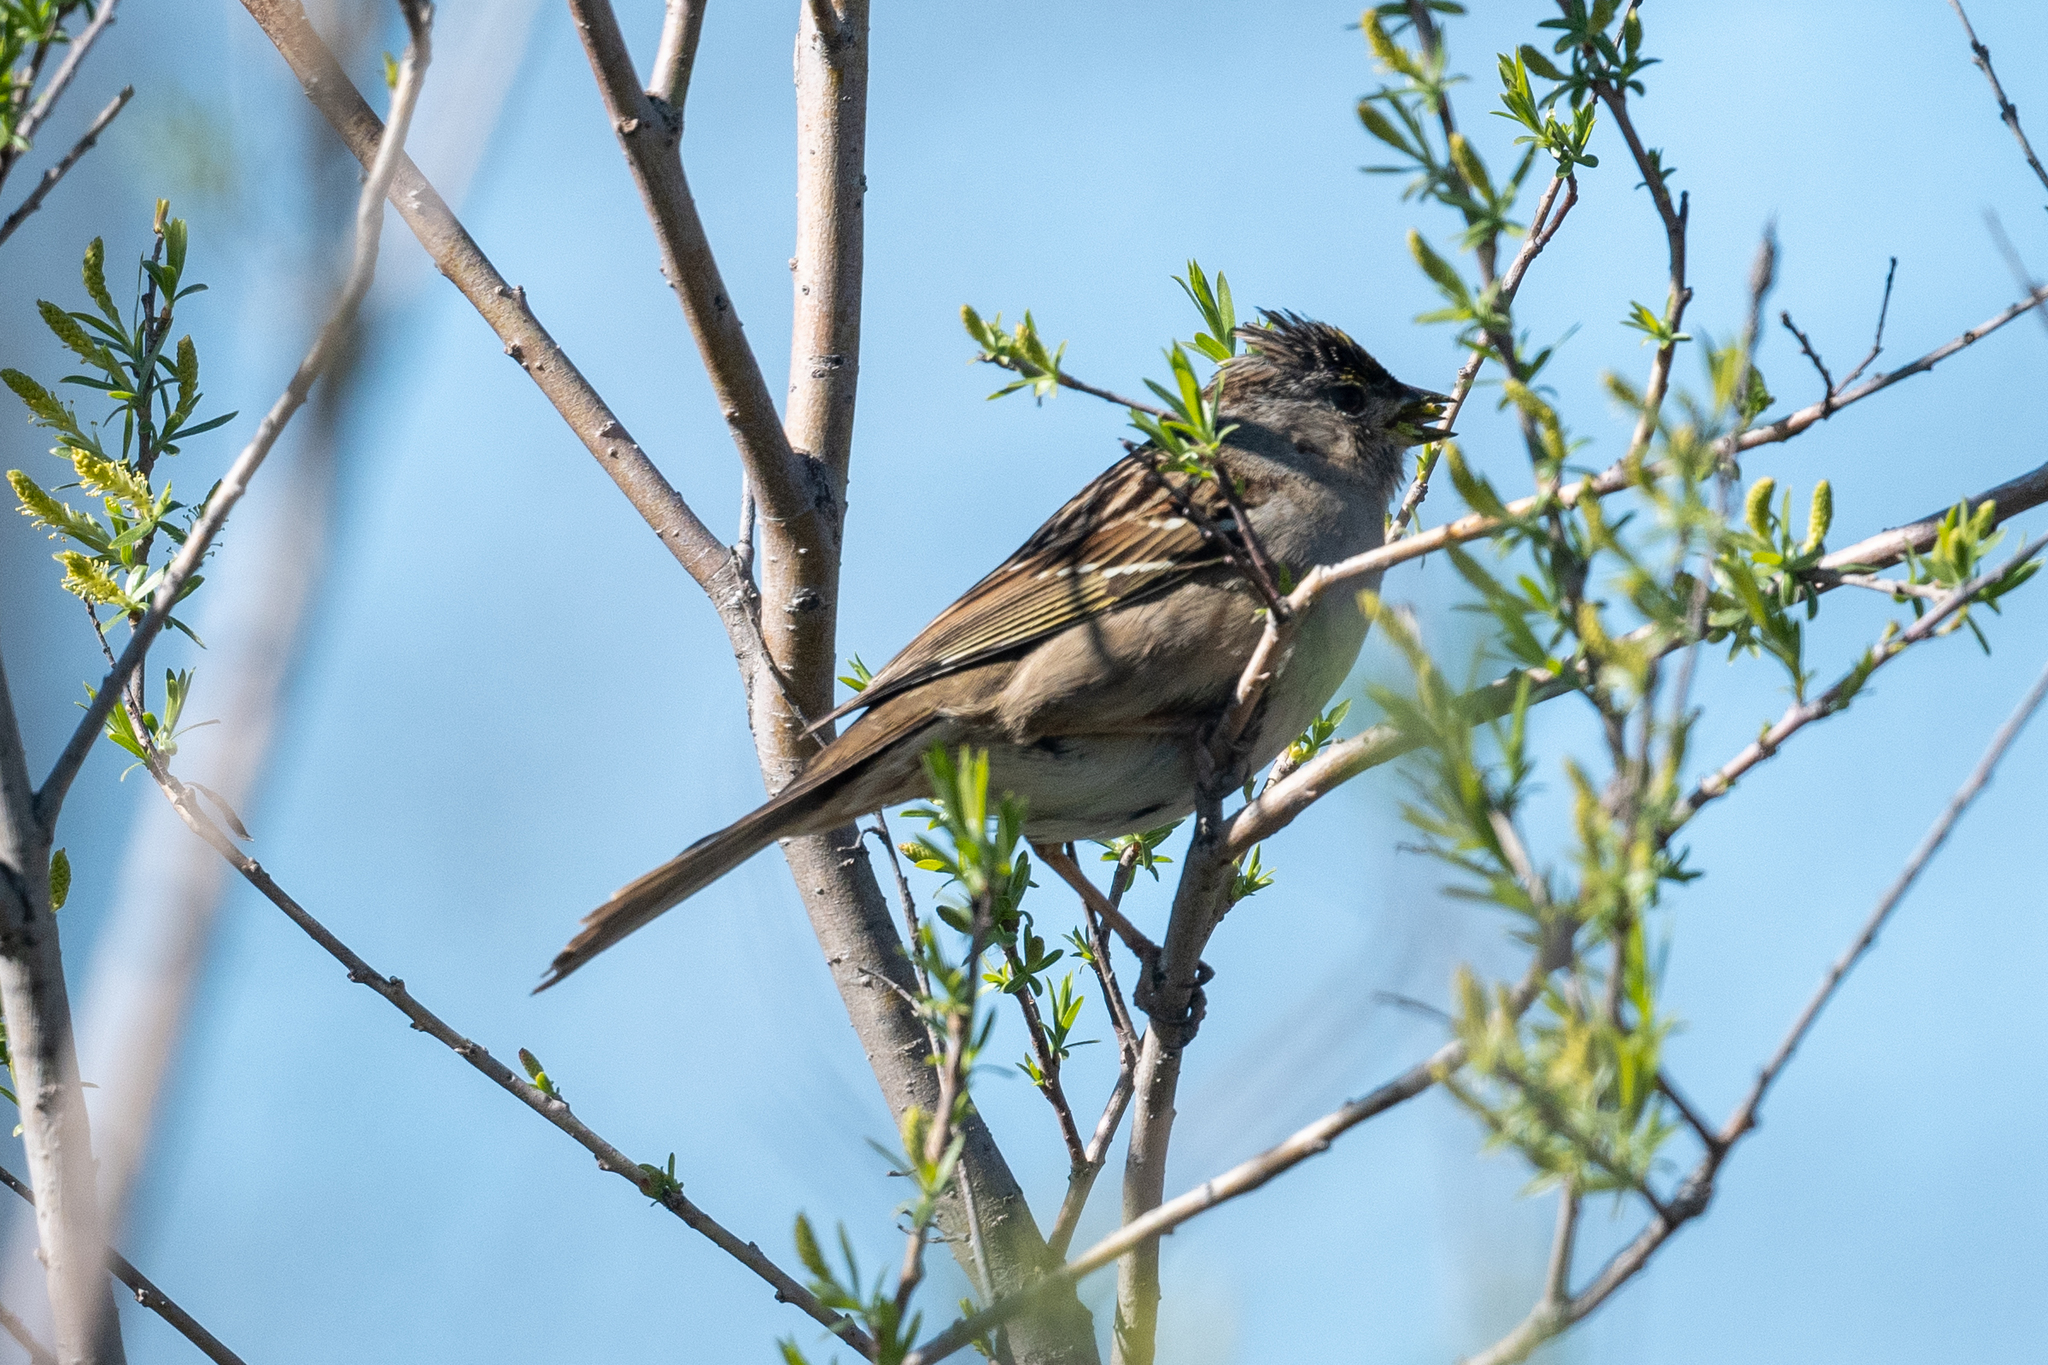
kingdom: Animalia
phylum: Chordata
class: Aves
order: Passeriformes
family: Passerellidae
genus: Zonotrichia
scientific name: Zonotrichia atricapilla
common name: Golden-crowned sparrow
